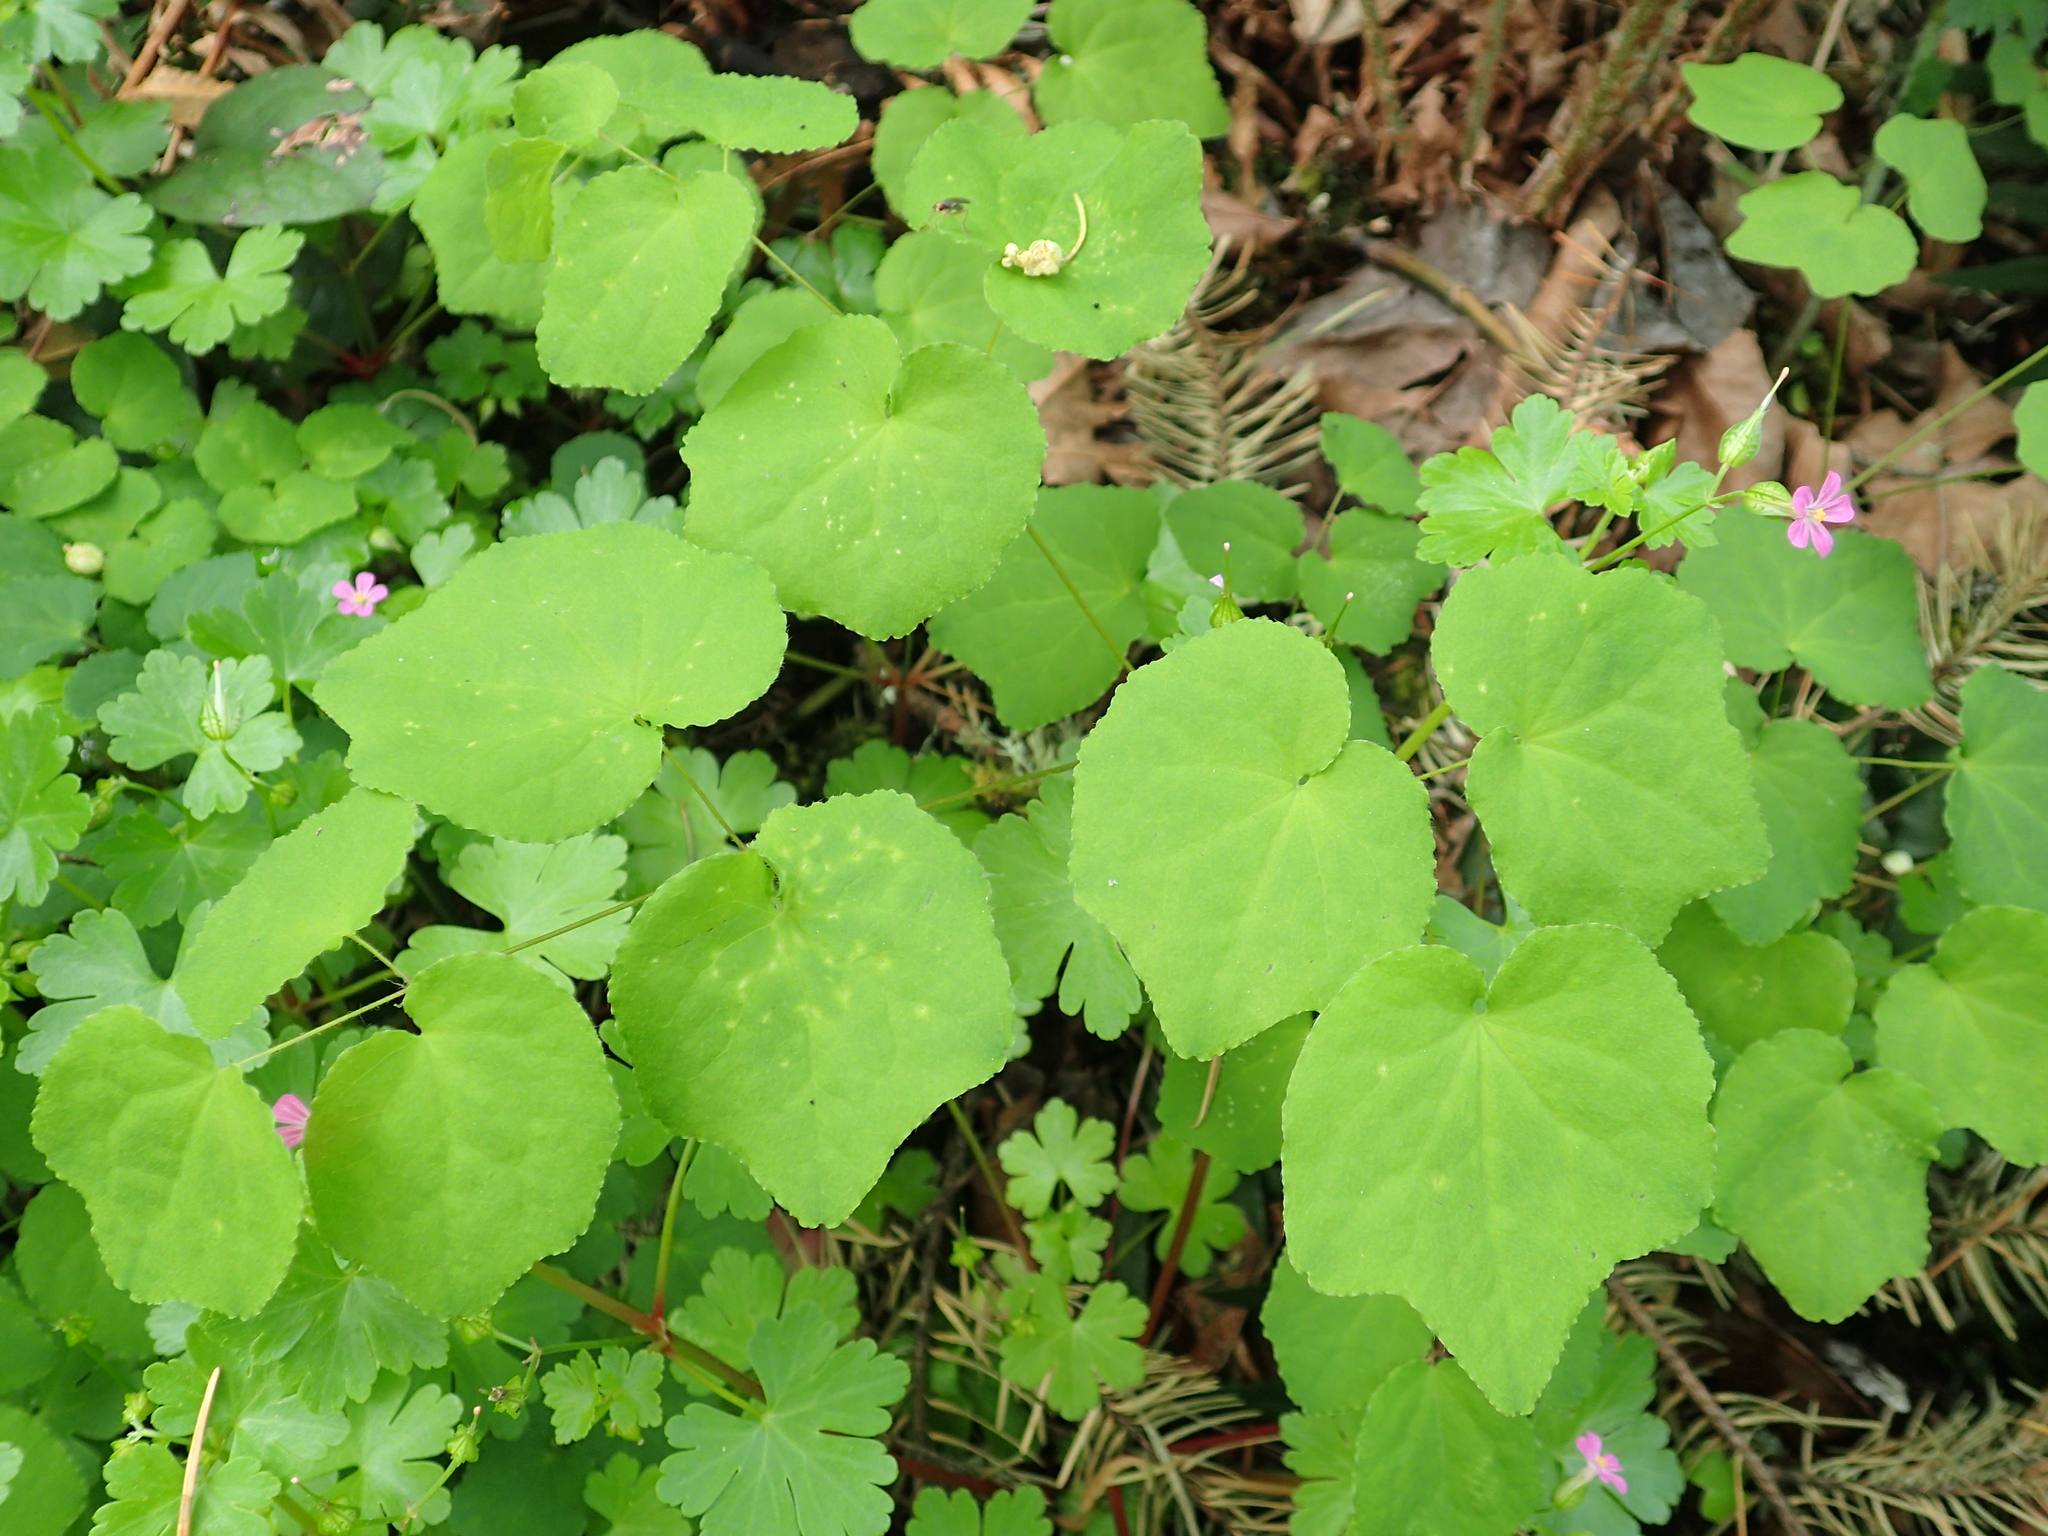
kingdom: Plantae
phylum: Tracheophyta
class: Magnoliopsida
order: Ranunculales
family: Berberidaceae
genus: Vancouveria
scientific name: Vancouveria hexandra
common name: Northern inside-out-flower
